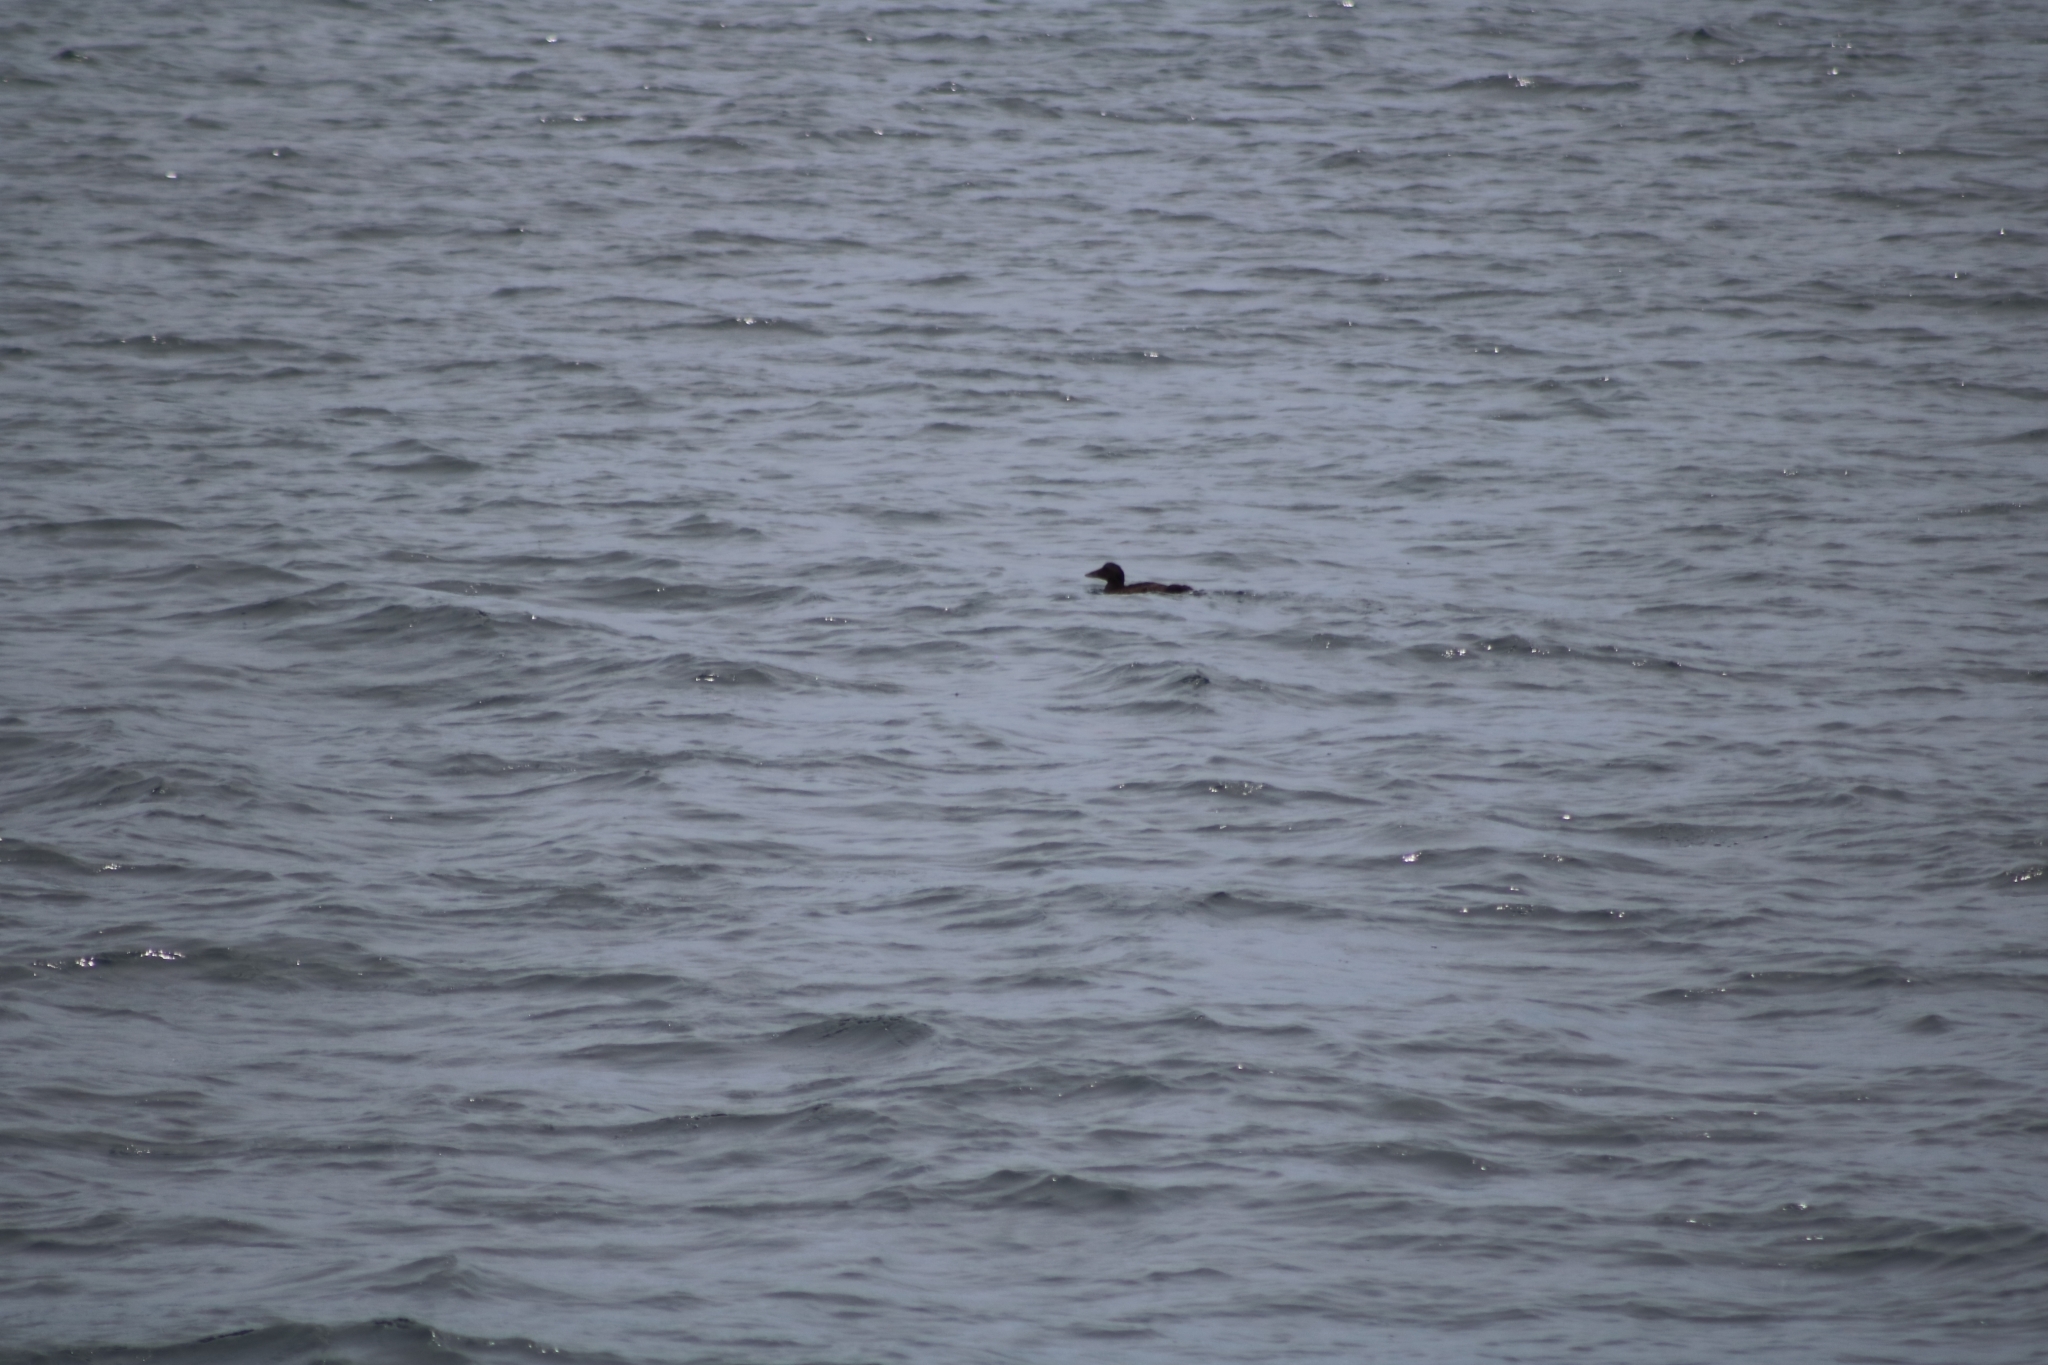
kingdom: Animalia
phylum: Chordata
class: Aves
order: Anseriformes
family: Anatidae
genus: Somateria
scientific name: Somateria mollissima
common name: Common eider
